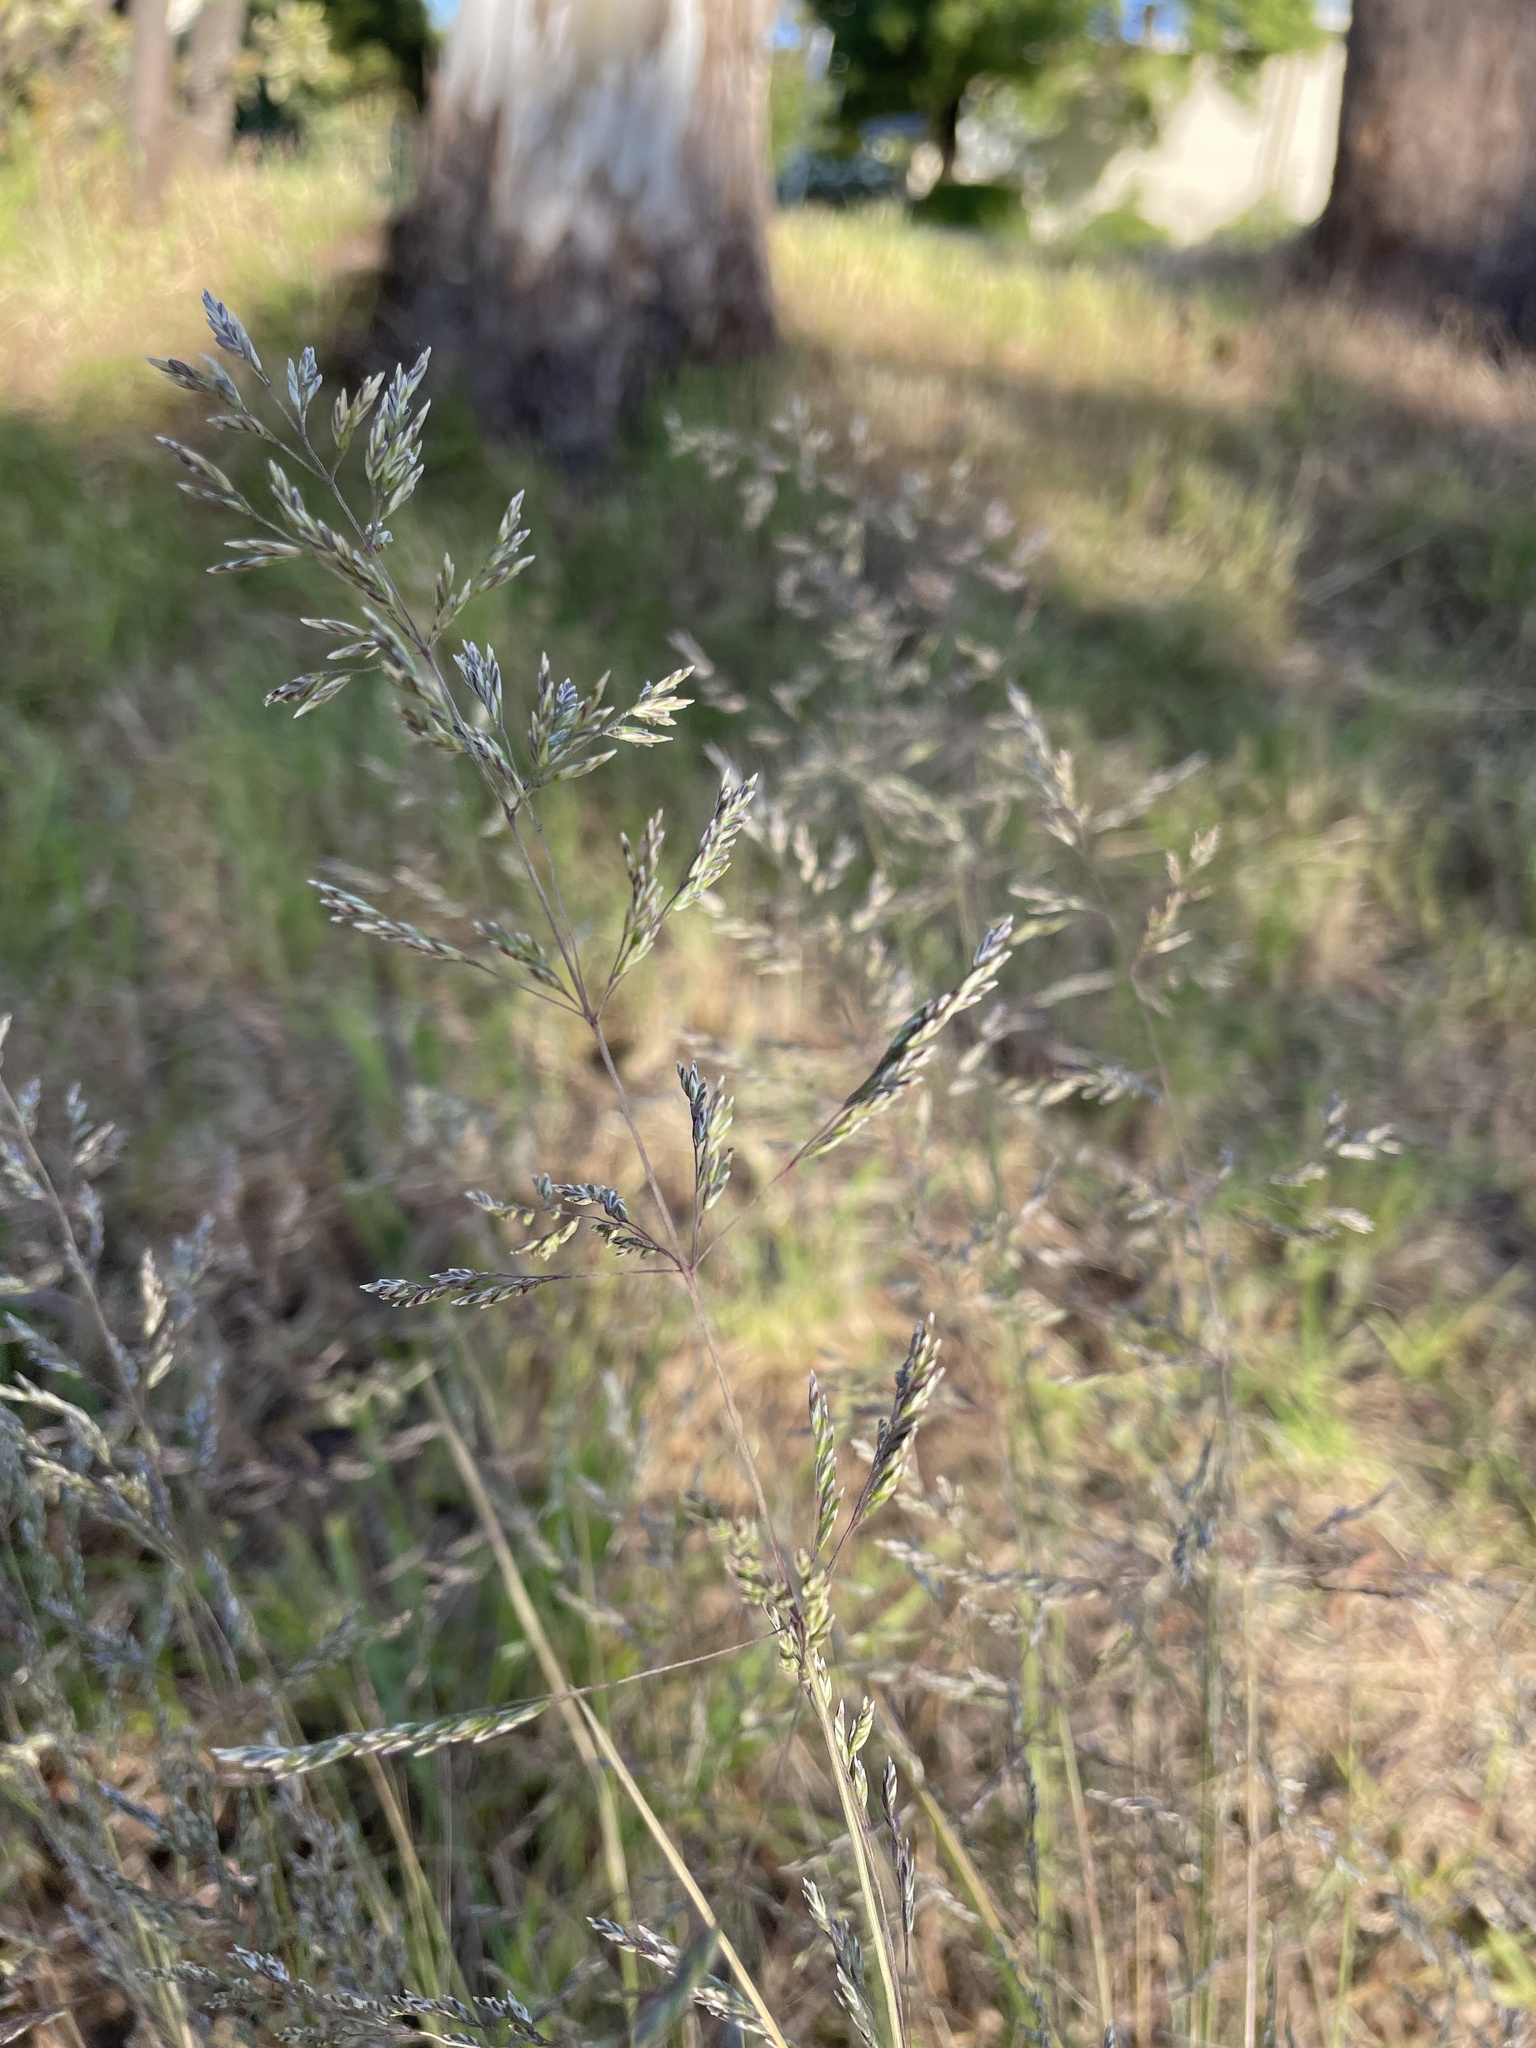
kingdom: Plantae
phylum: Tracheophyta
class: Liliopsida
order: Poales
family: Poaceae
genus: Poa
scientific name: Poa labillardierei
